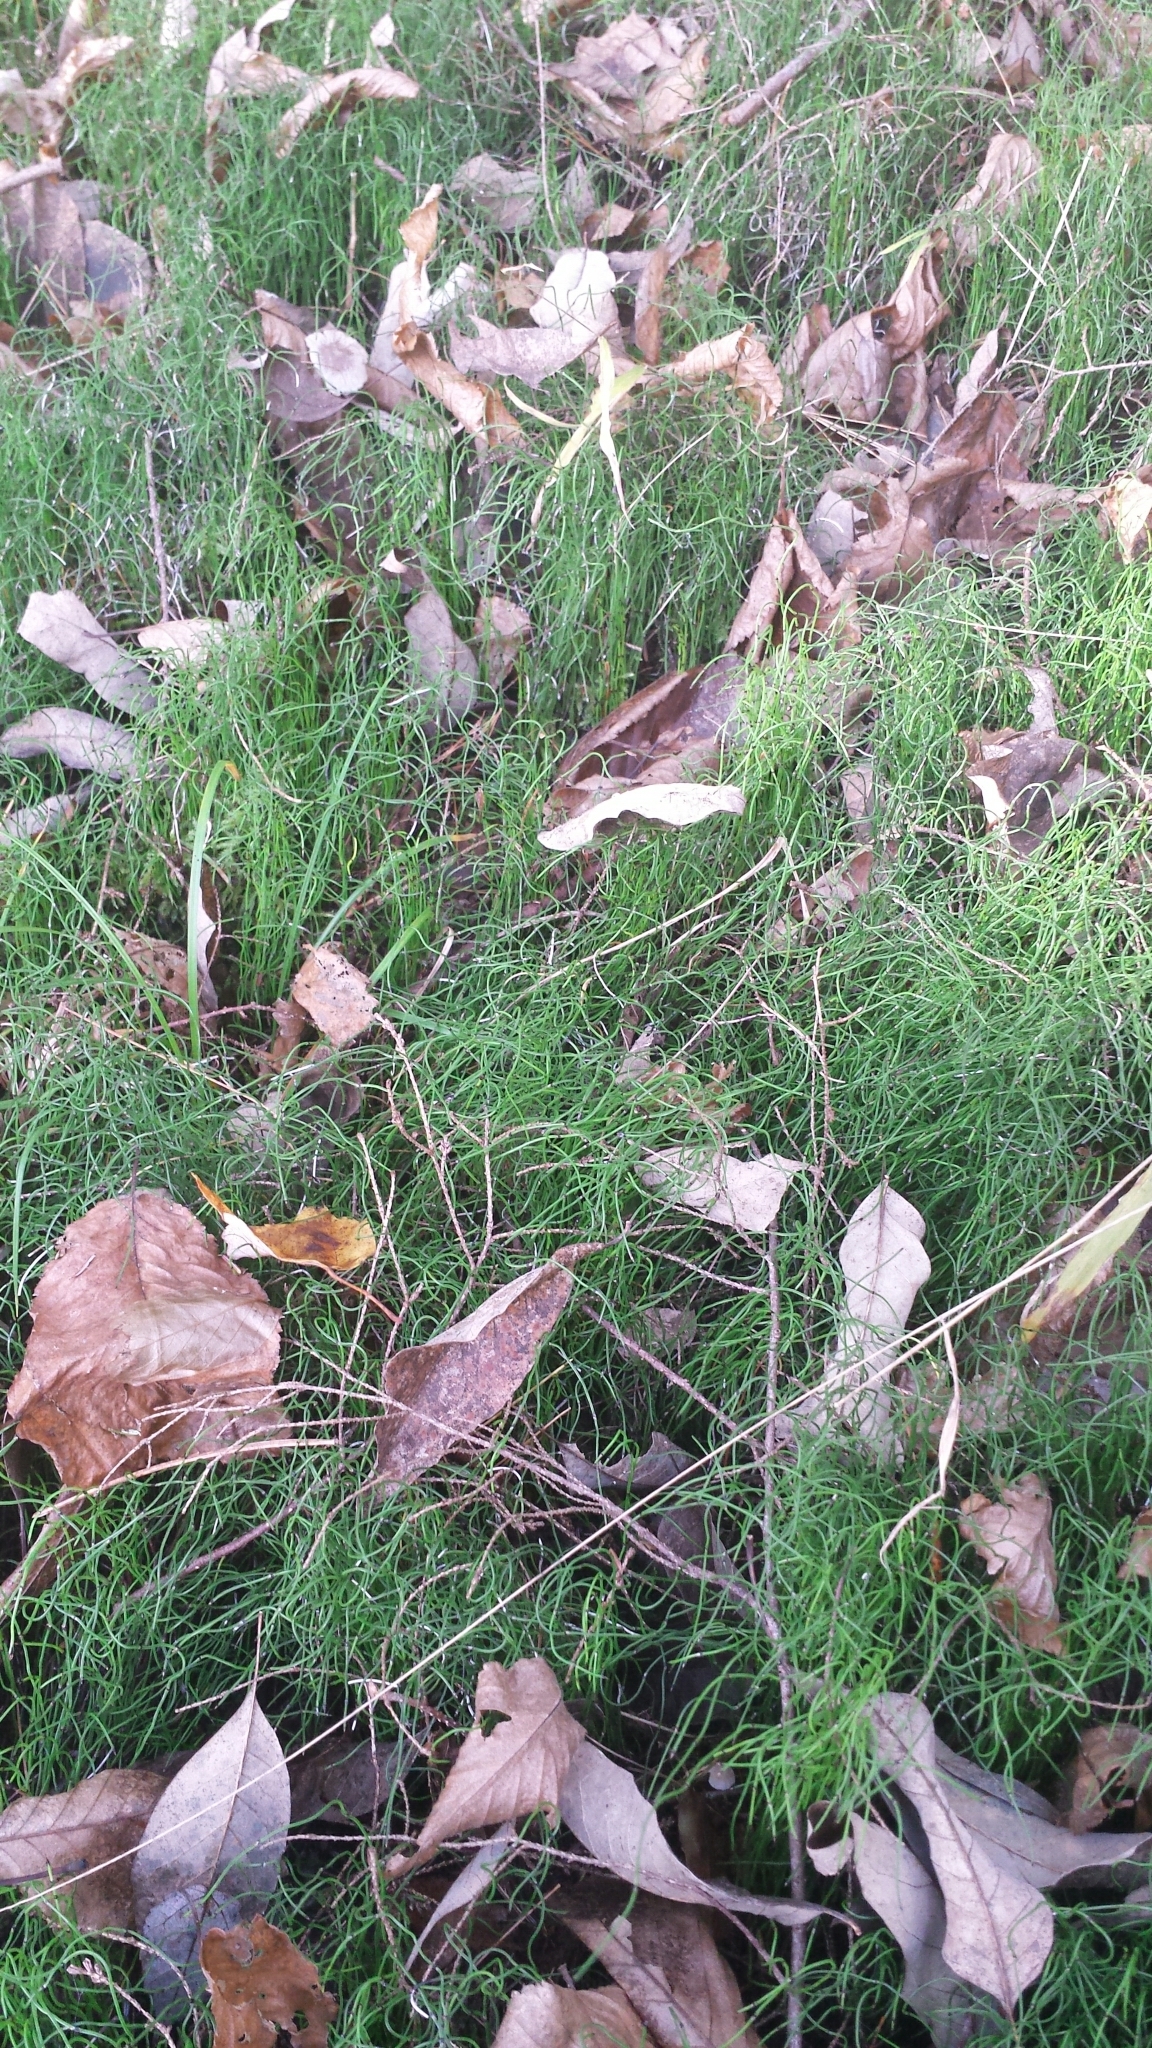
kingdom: Plantae
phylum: Tracheophyta
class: Polypodiopsida
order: Equisetales
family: Equisetaceae
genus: Equisetum
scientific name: Equisetum scirpoides
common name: Delicate horsetail
